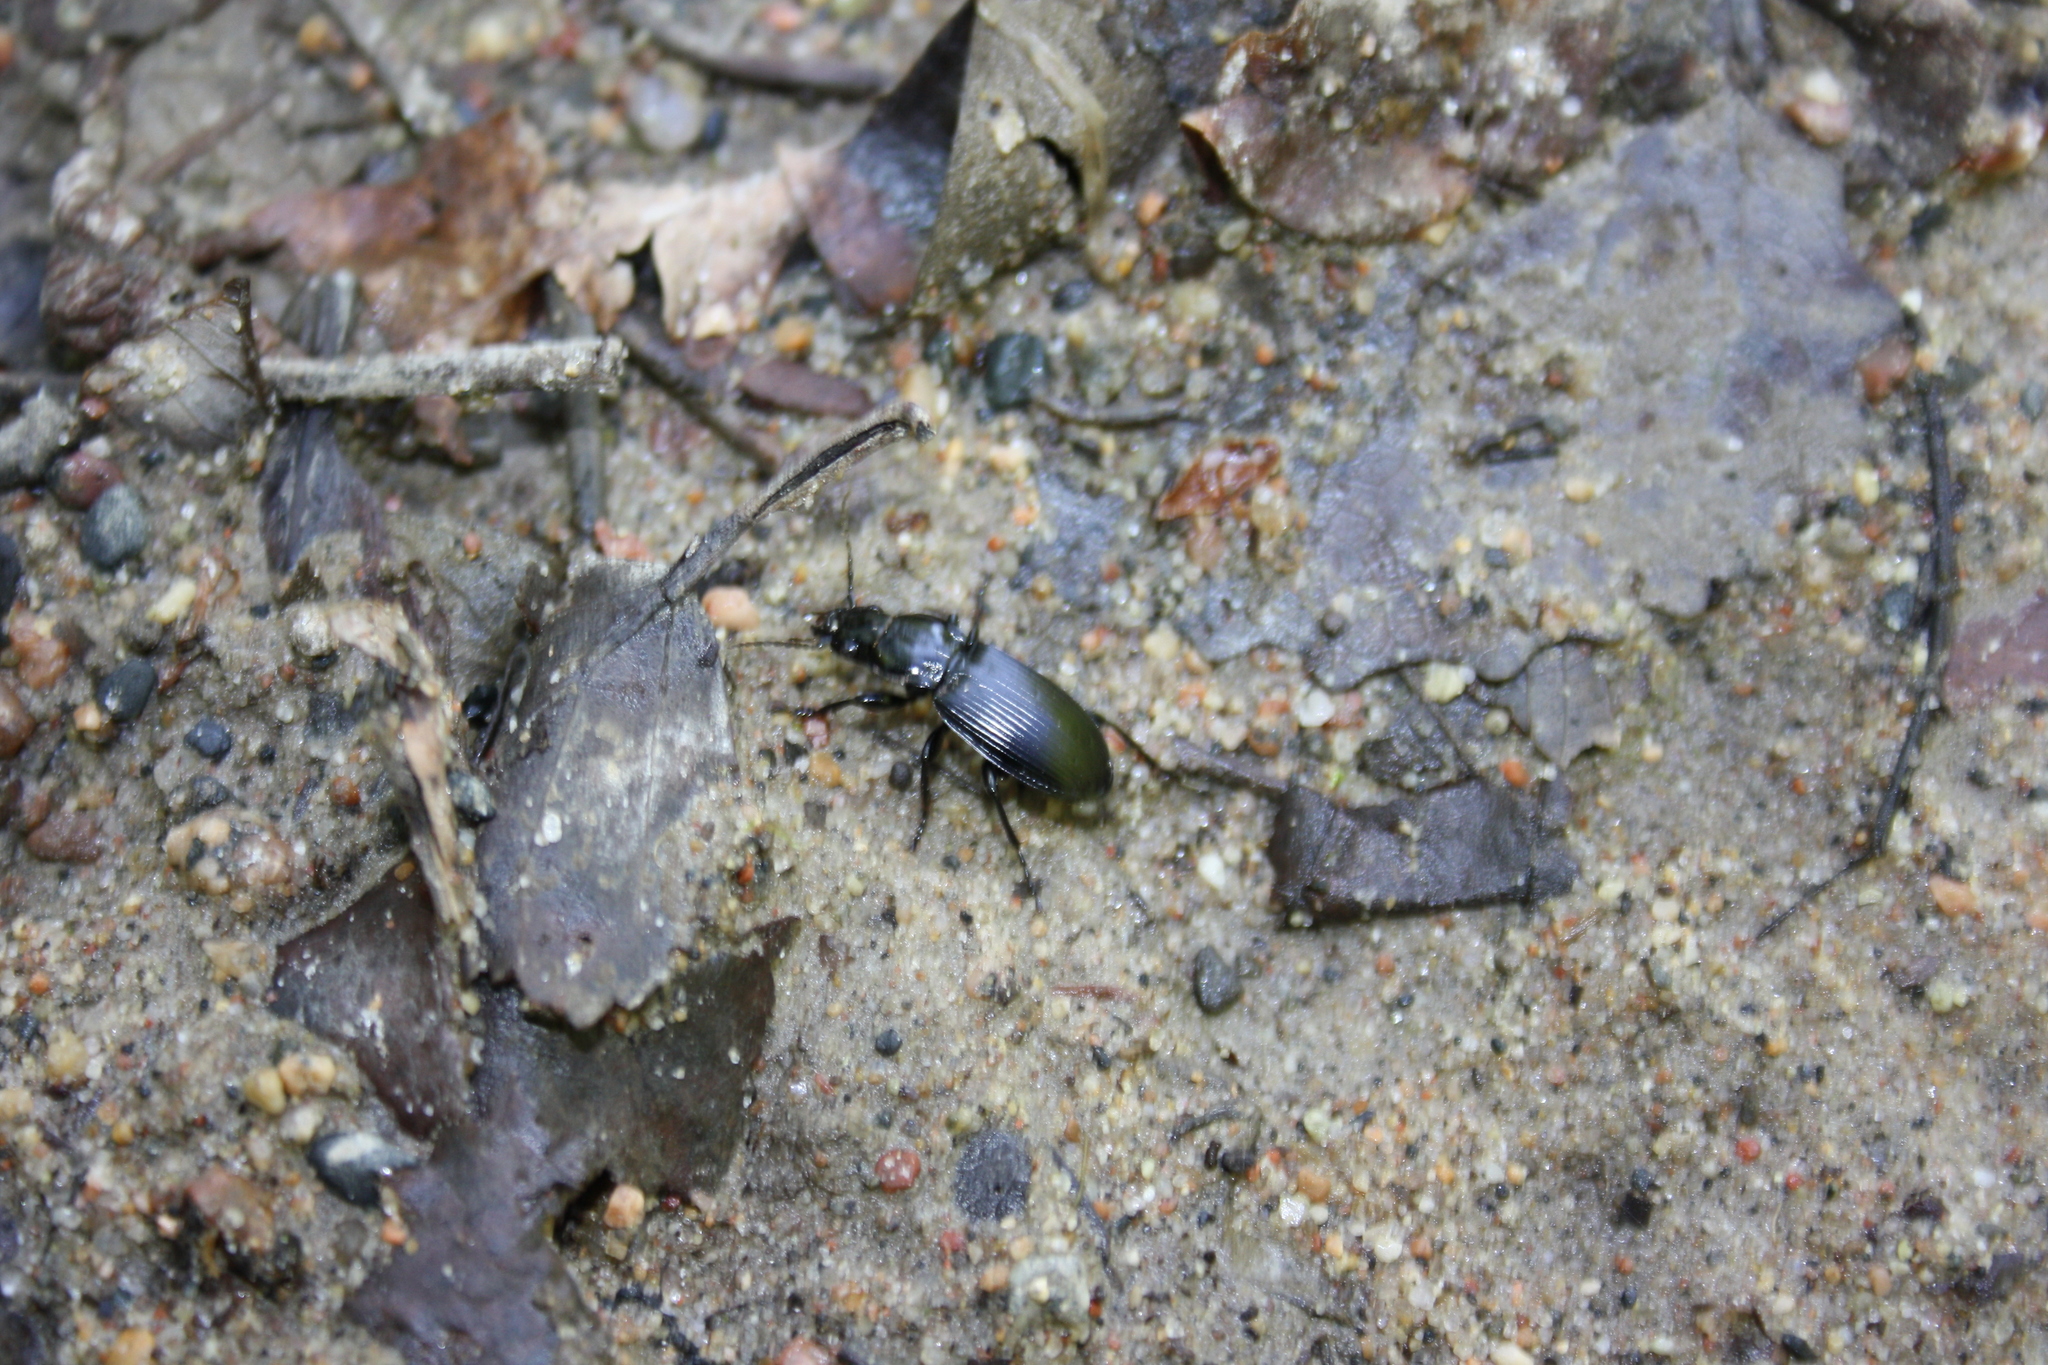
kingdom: Animalia
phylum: Arthropoda
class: Insecta
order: Coleoptera
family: Carabidae
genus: Pterostichus
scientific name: Pterostichus
